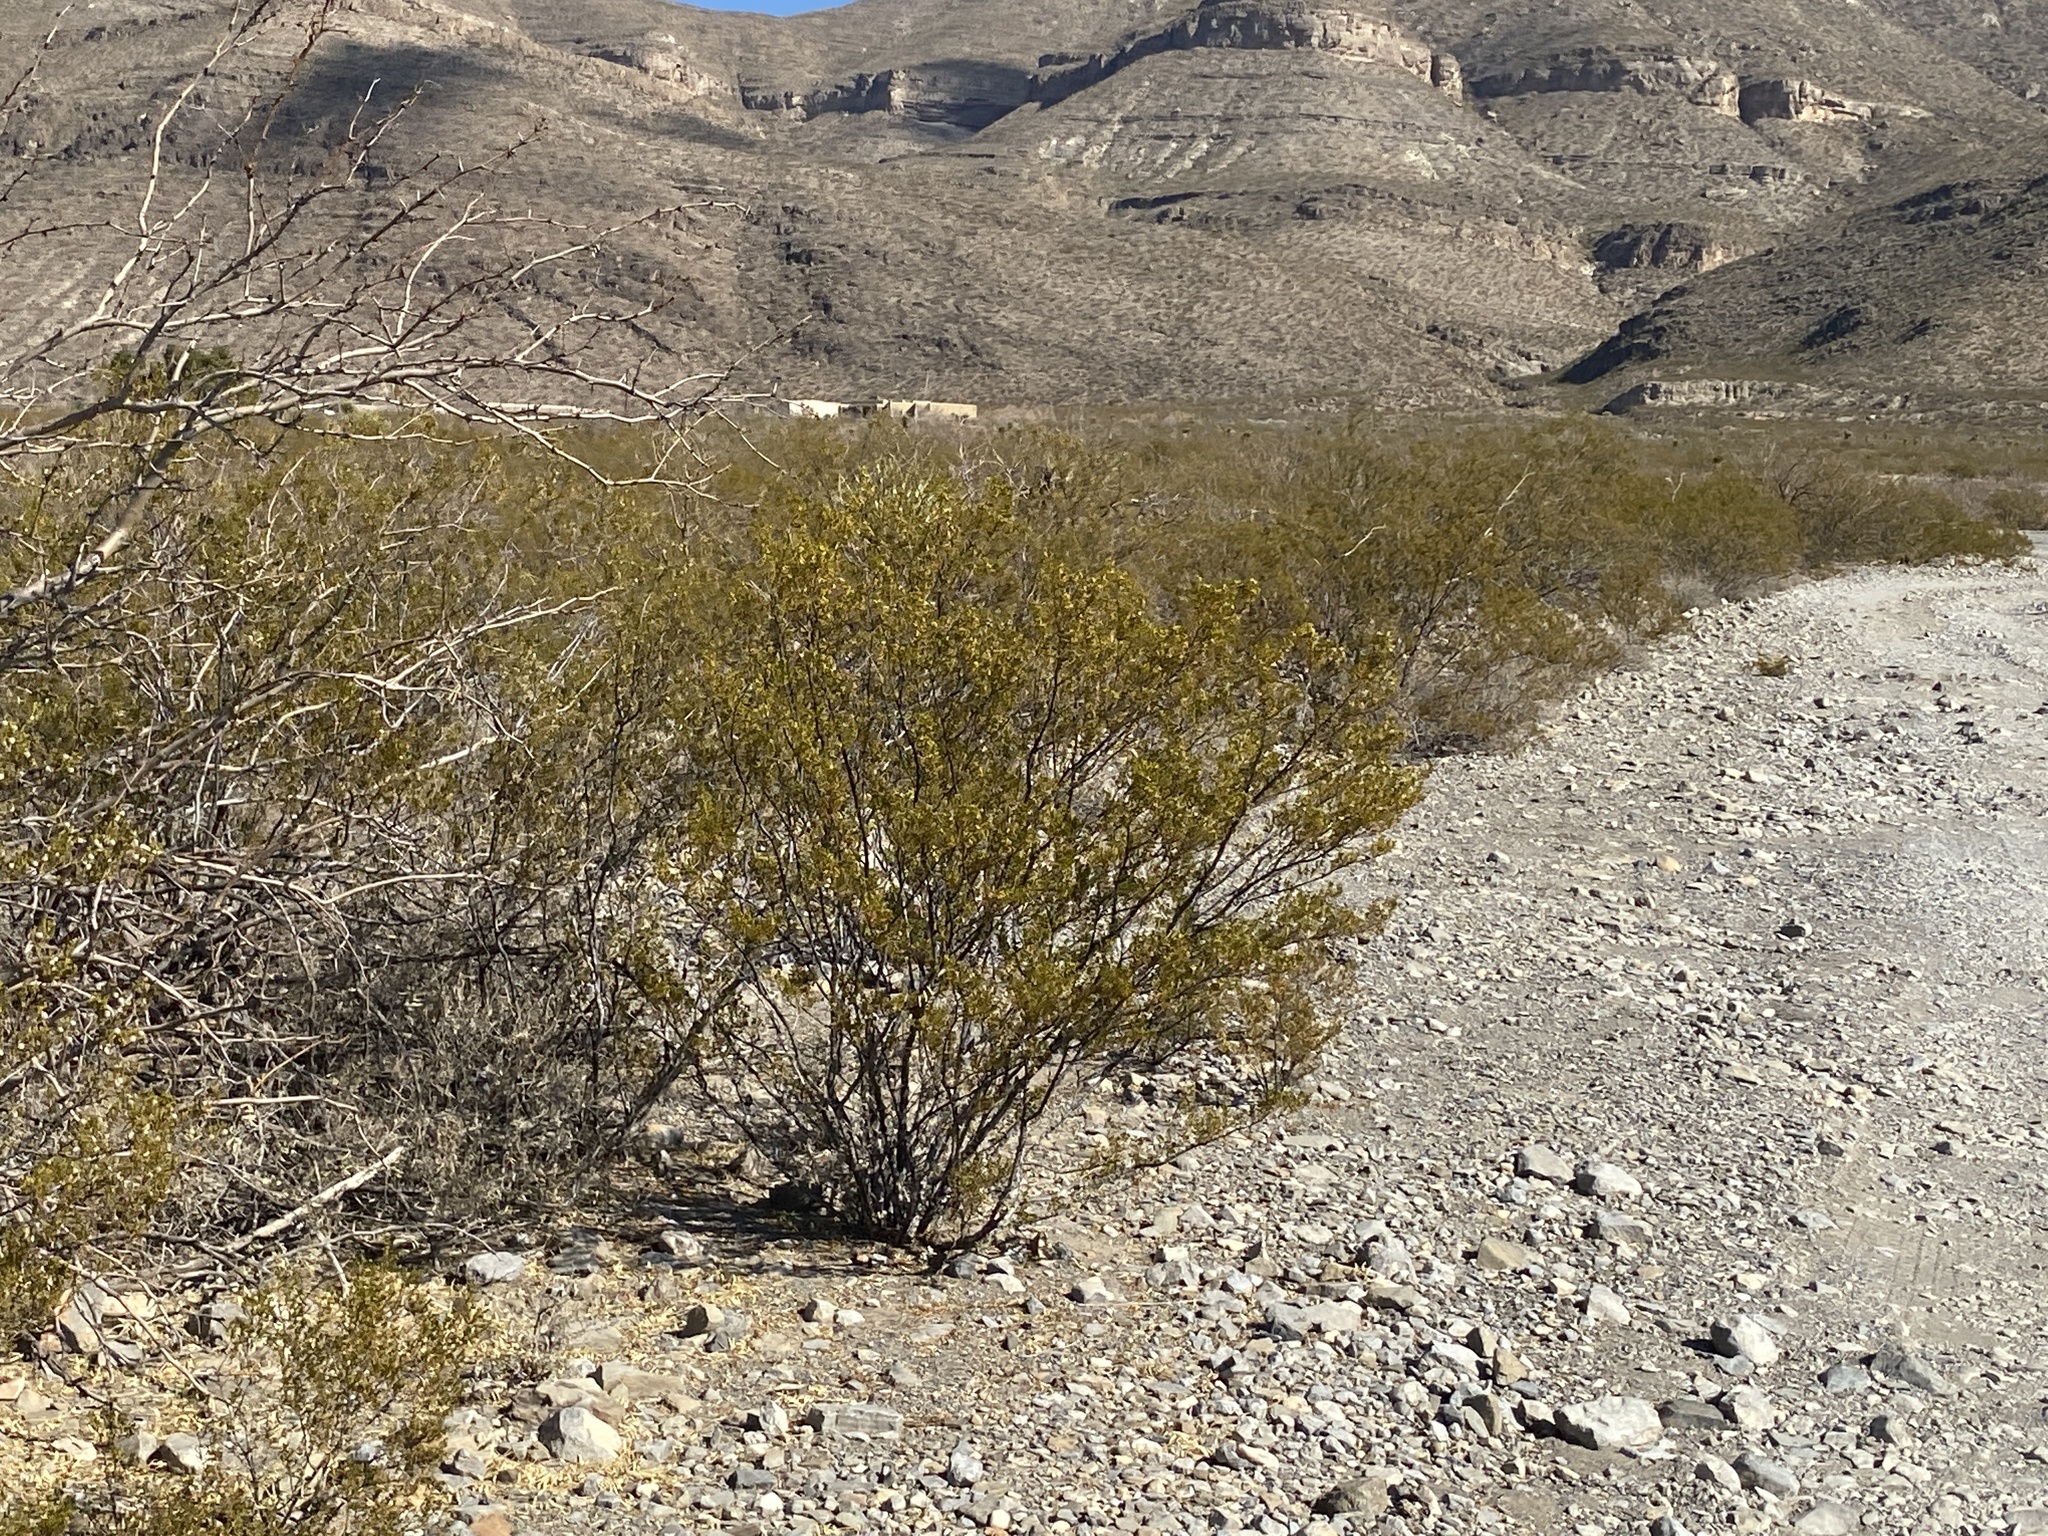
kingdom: Plantae
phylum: Tracheophyta
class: Magnoliopsida
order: Zygophyllales
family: Zygophyllaceae
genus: Larrea
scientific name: Larrea tridentata
